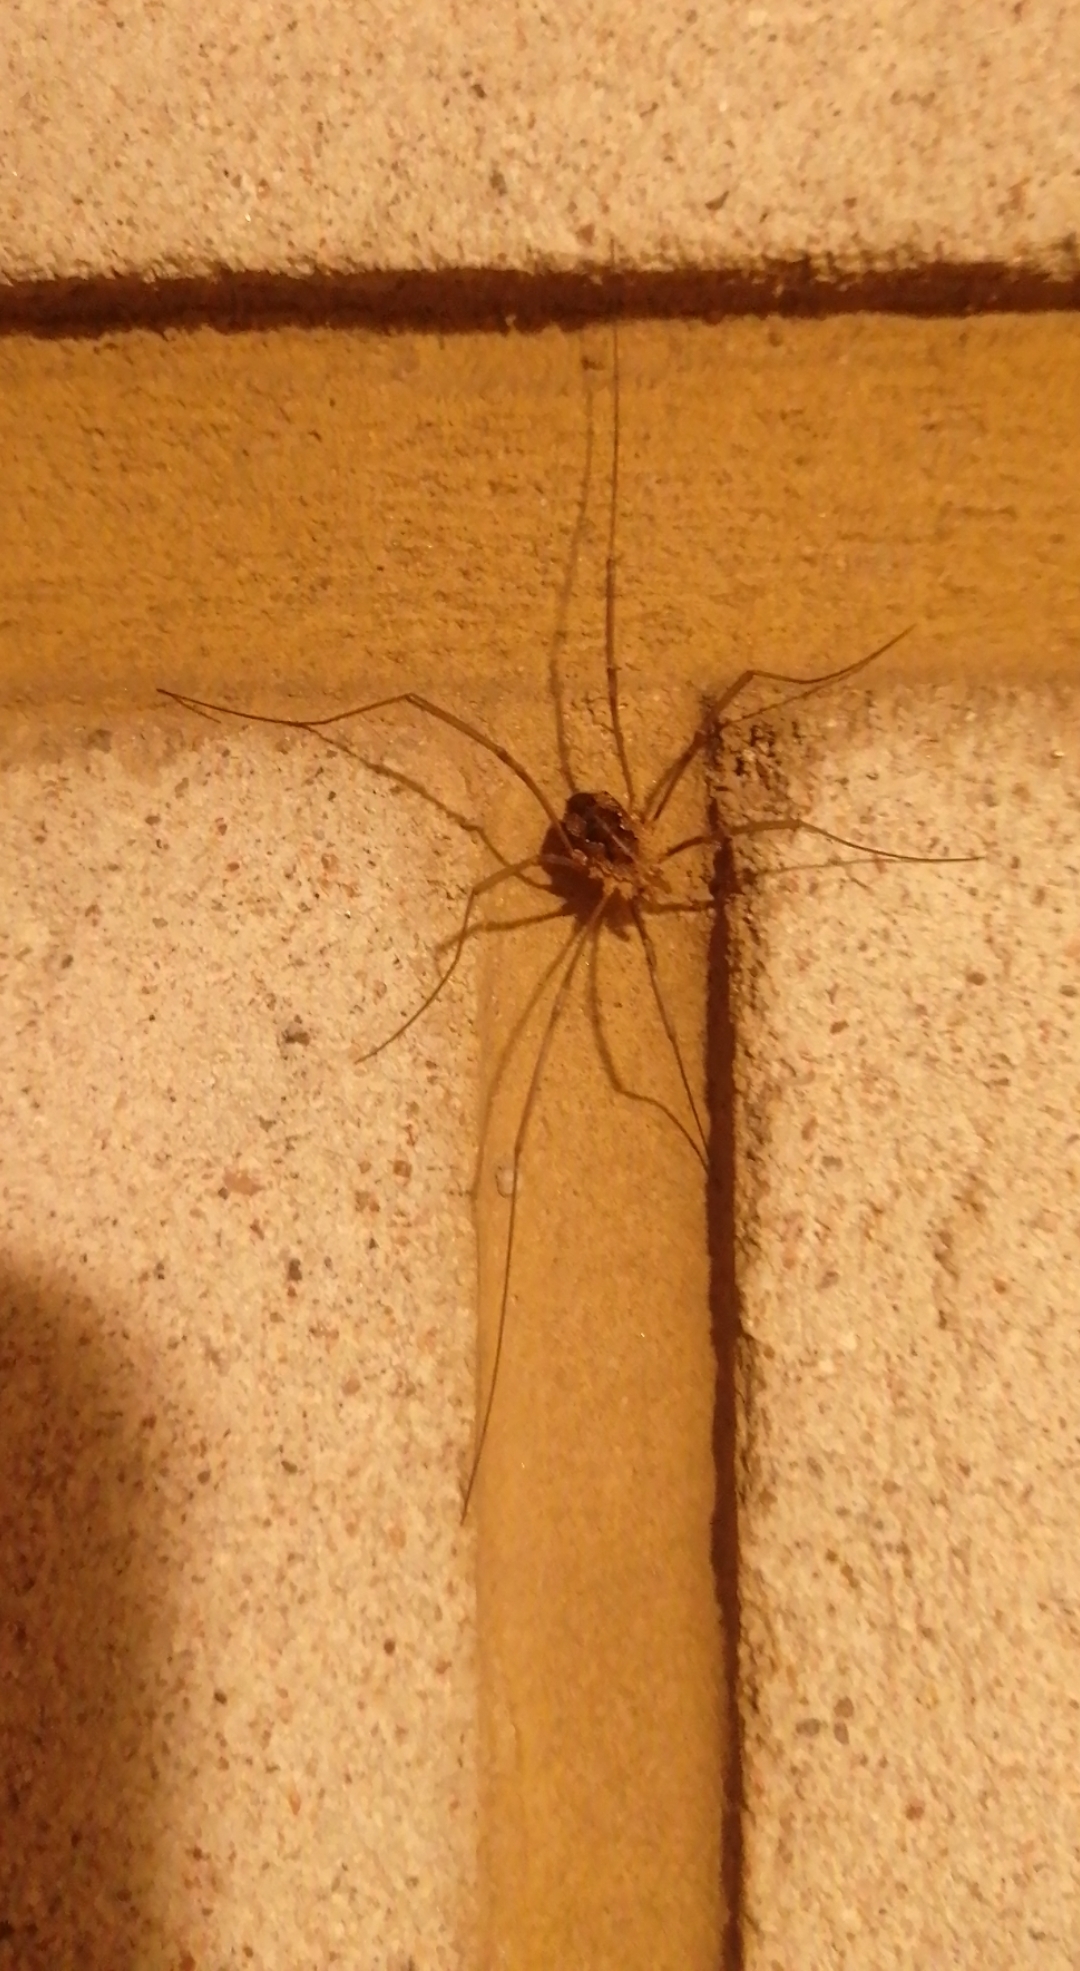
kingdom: Animalia
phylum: Arthropoda
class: Arachnida
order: Opiliones
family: Phalangiidae
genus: Phalangium
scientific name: Phalangium opilio
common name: Daddy longleg
